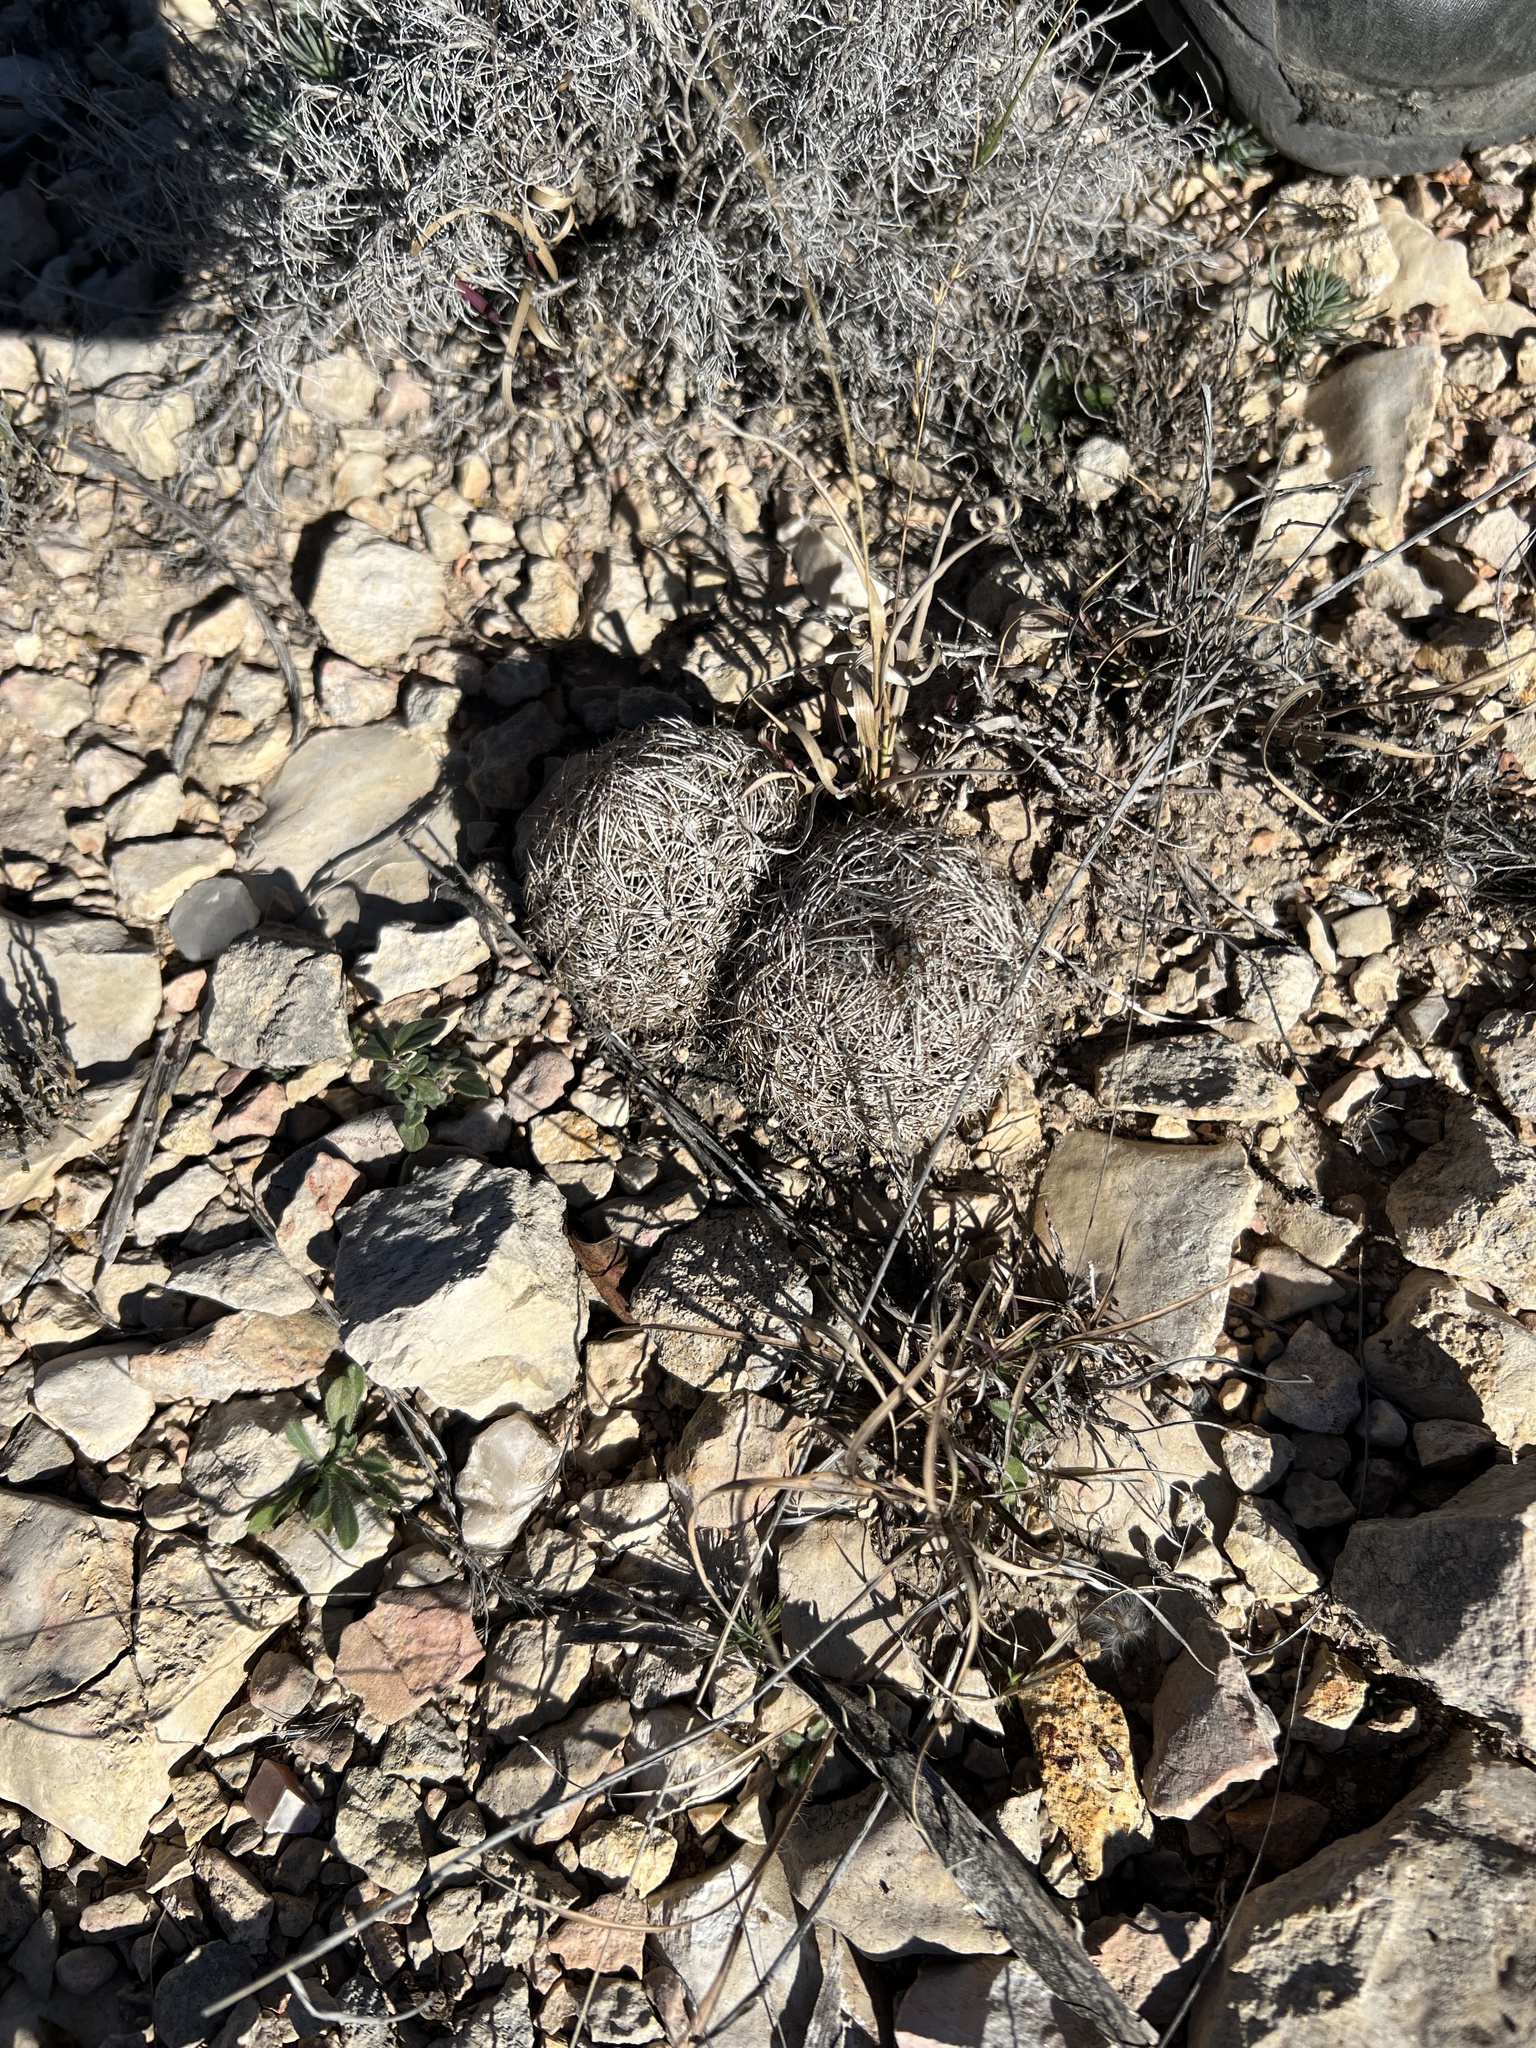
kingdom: Plantae
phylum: Tracheophyta
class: Magnoliopsida
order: Caryophyllales
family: Cactaceae
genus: Coryphantha
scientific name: Coryphantha echinus
